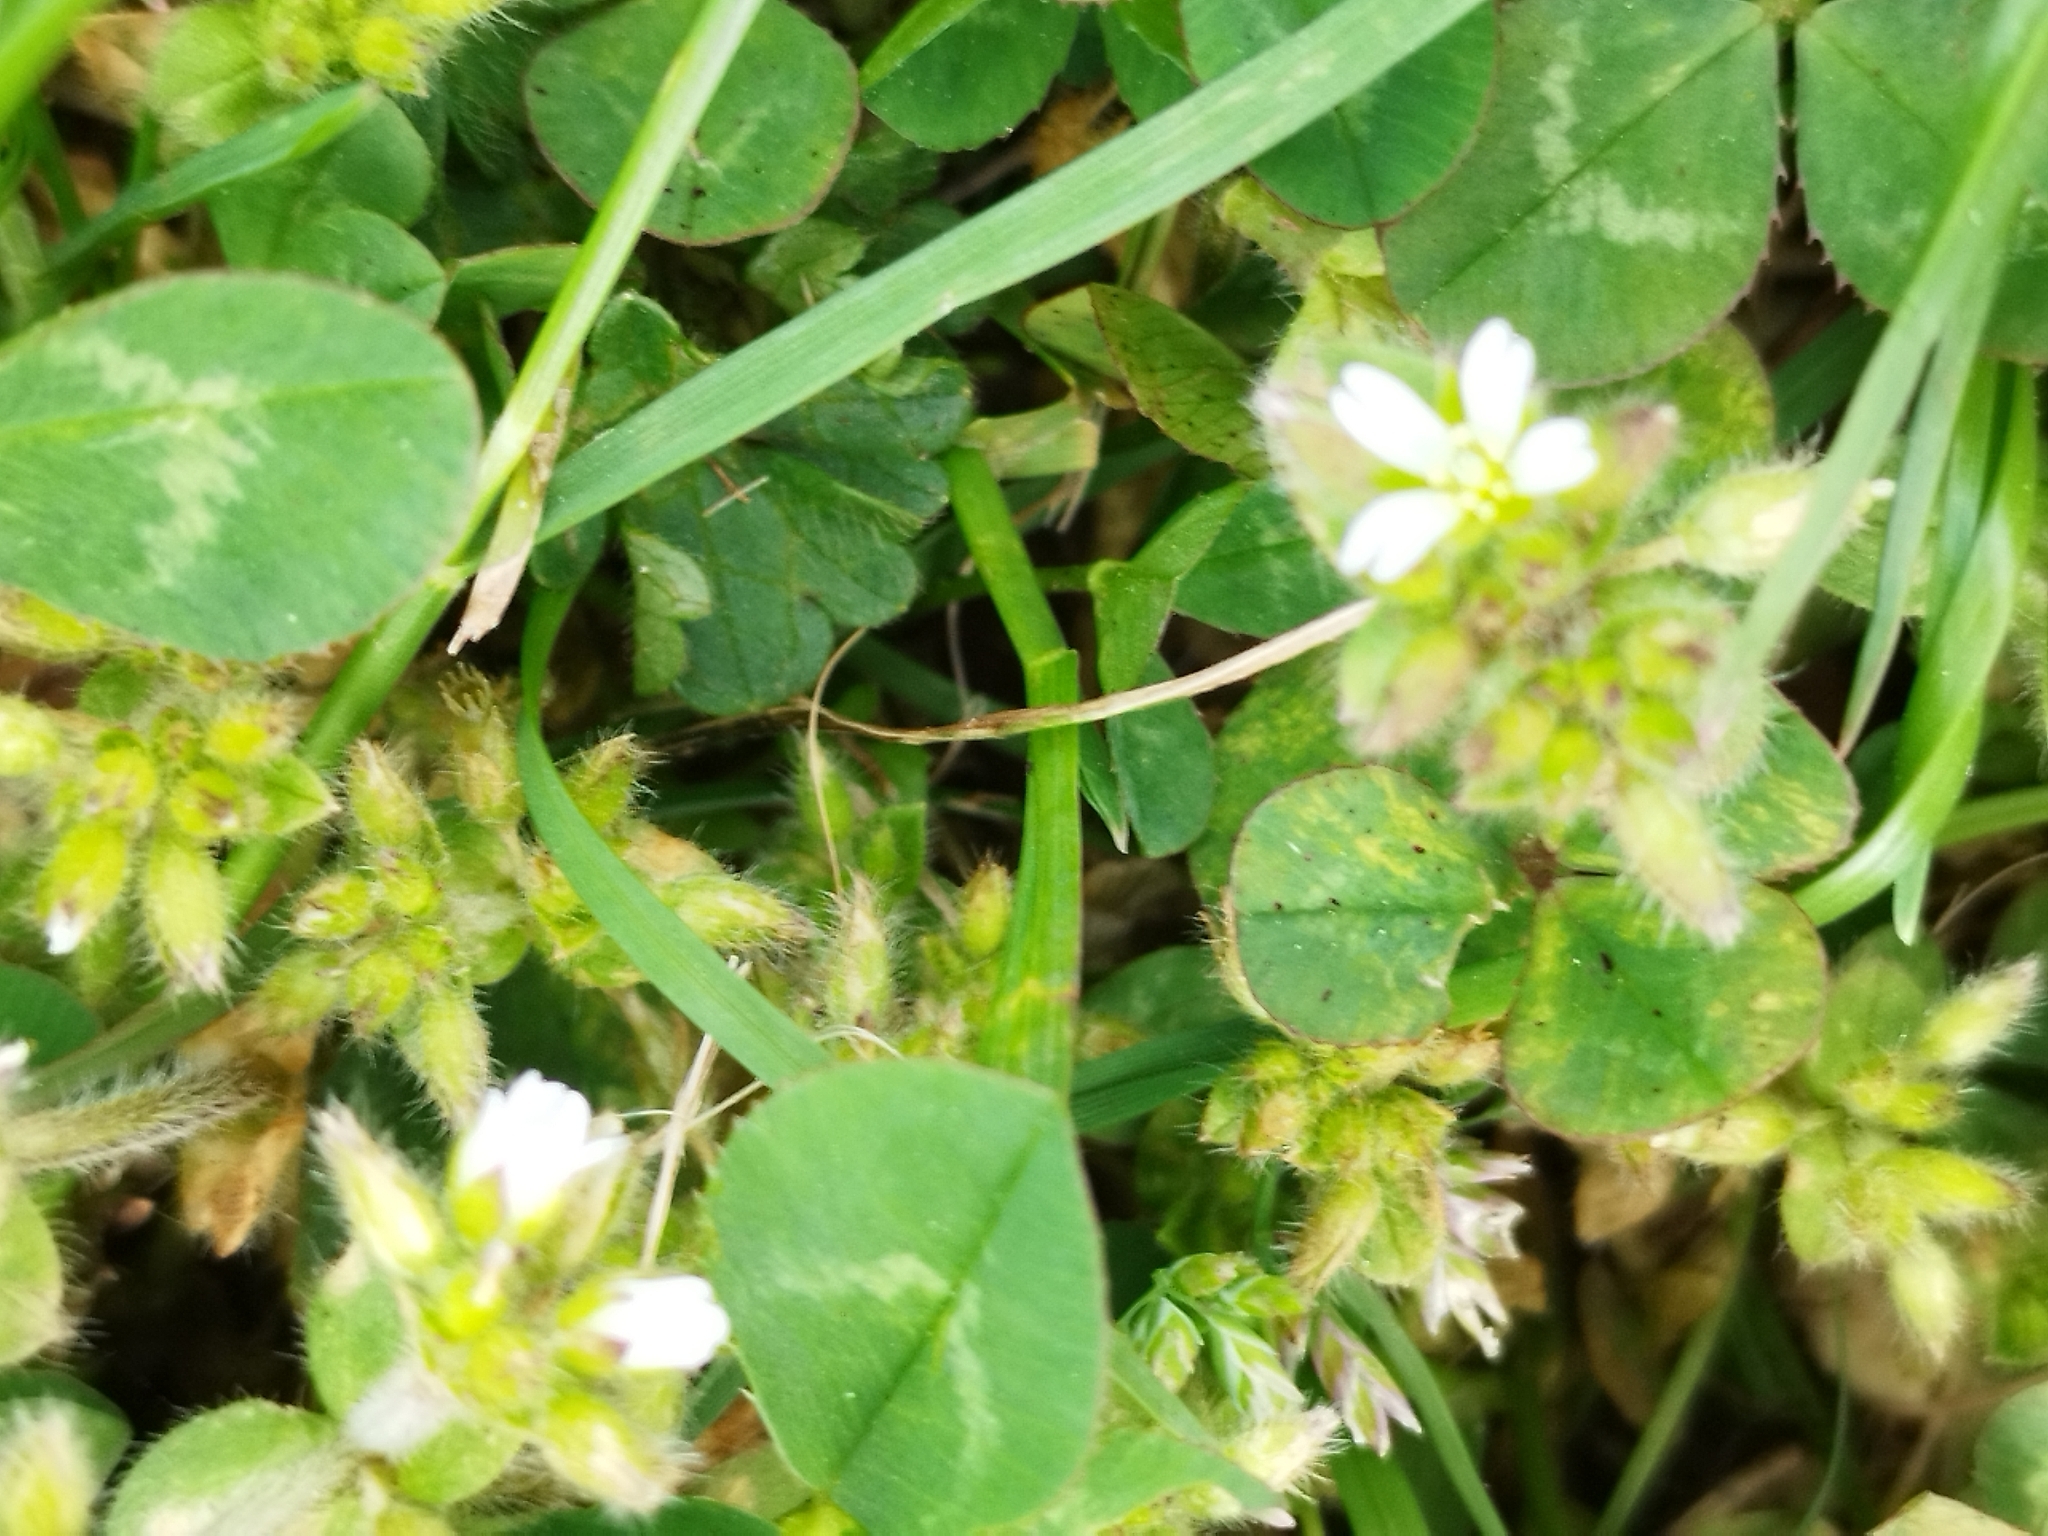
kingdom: Plantae
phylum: Tracheophyta
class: Magnoliopsida
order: Caryophyllales
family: Caryophyllaceae
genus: Cerastium
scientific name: Cerastium glomeratum
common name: Sticky chickweed
